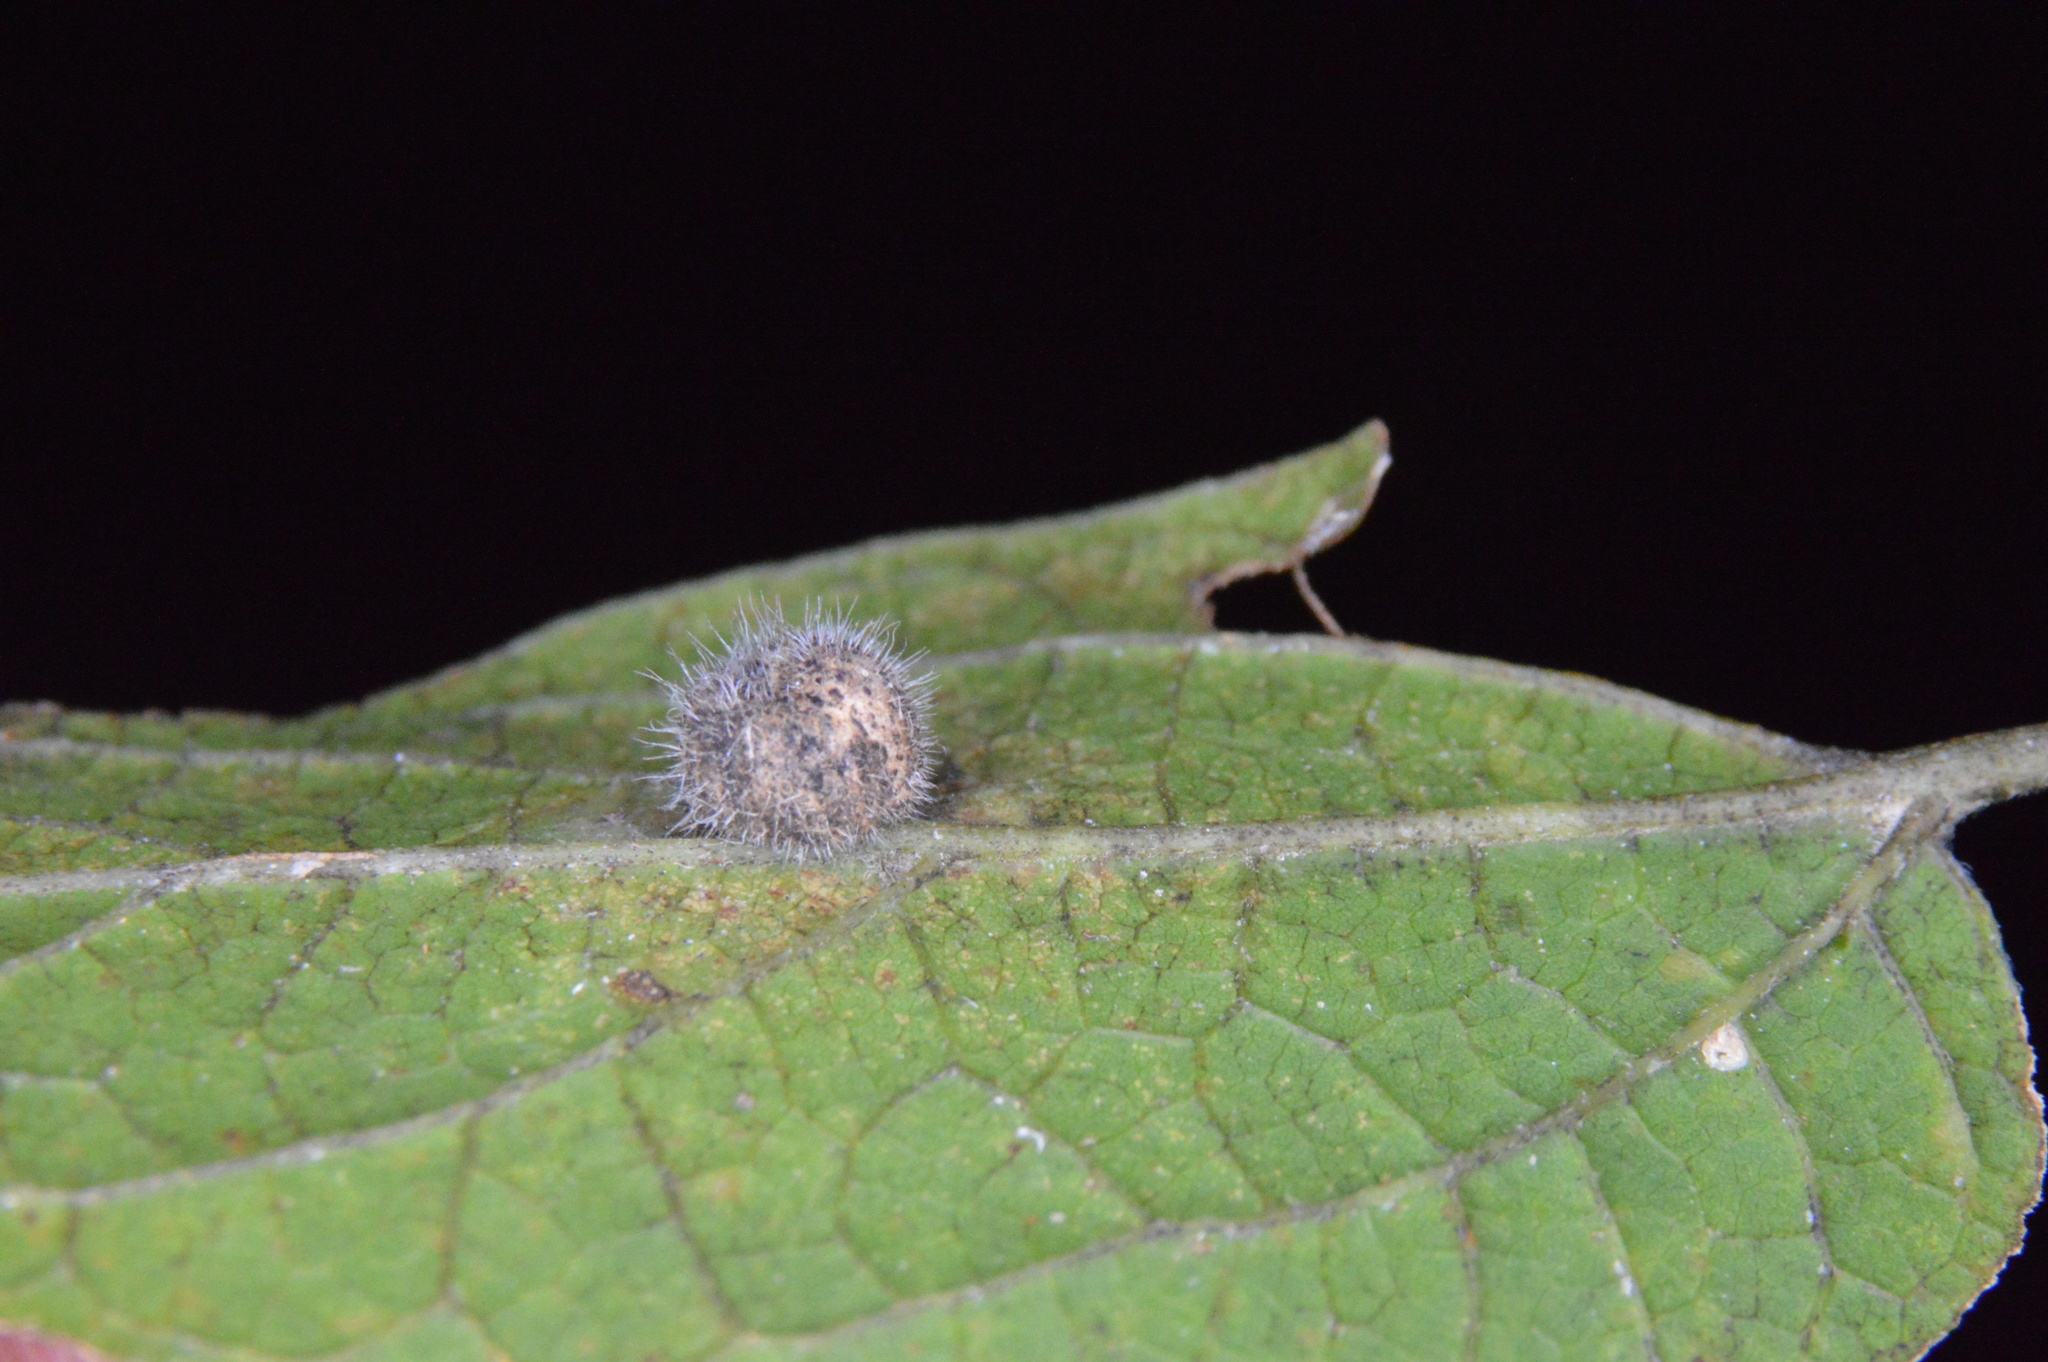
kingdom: Animalia
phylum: Arthropoda
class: Insecta
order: Diptera
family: Cecidomyiidae
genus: Celticecis
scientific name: Celticecis pubescens
